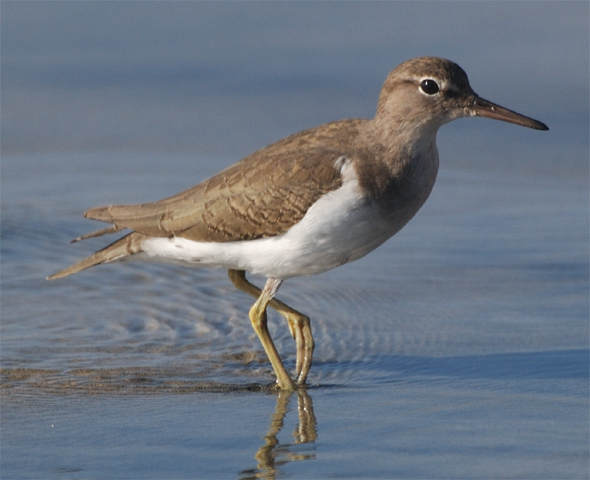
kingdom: Animalia
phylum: Chordata
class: Aves
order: Charadriiformes
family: Scolopacidae
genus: Actitis
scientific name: Actitis macularius
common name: Spotted sandpiper
